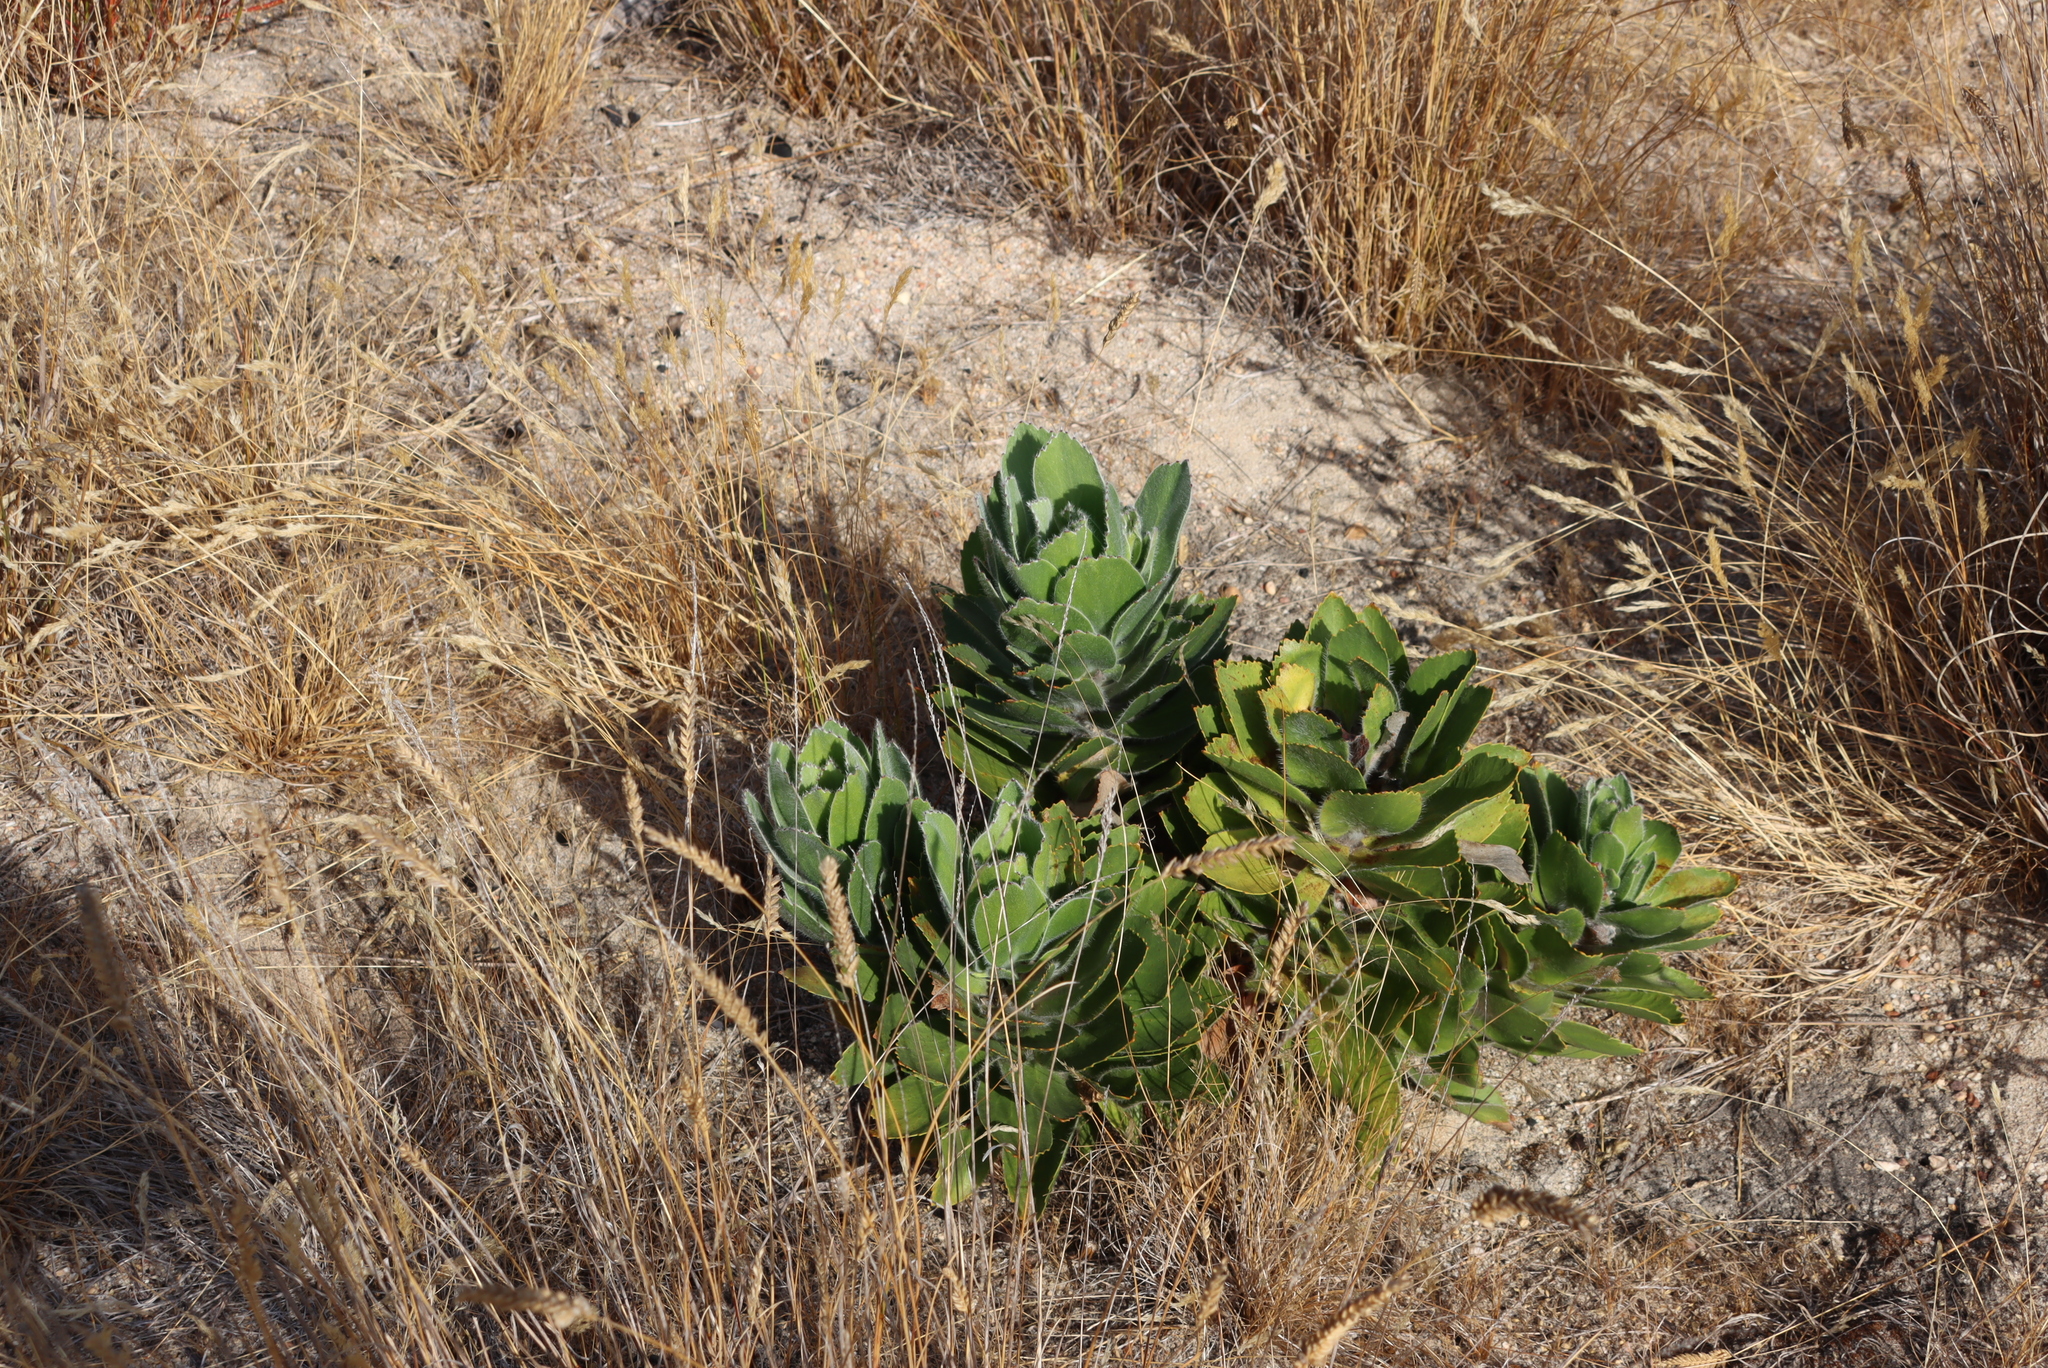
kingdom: Plantae
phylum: Tracheophyta
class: Magnoliopsida
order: Proteales
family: Proteaceae
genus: Leucospermum
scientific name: Leucospermum conocarpodendron
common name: Tree pincushion
